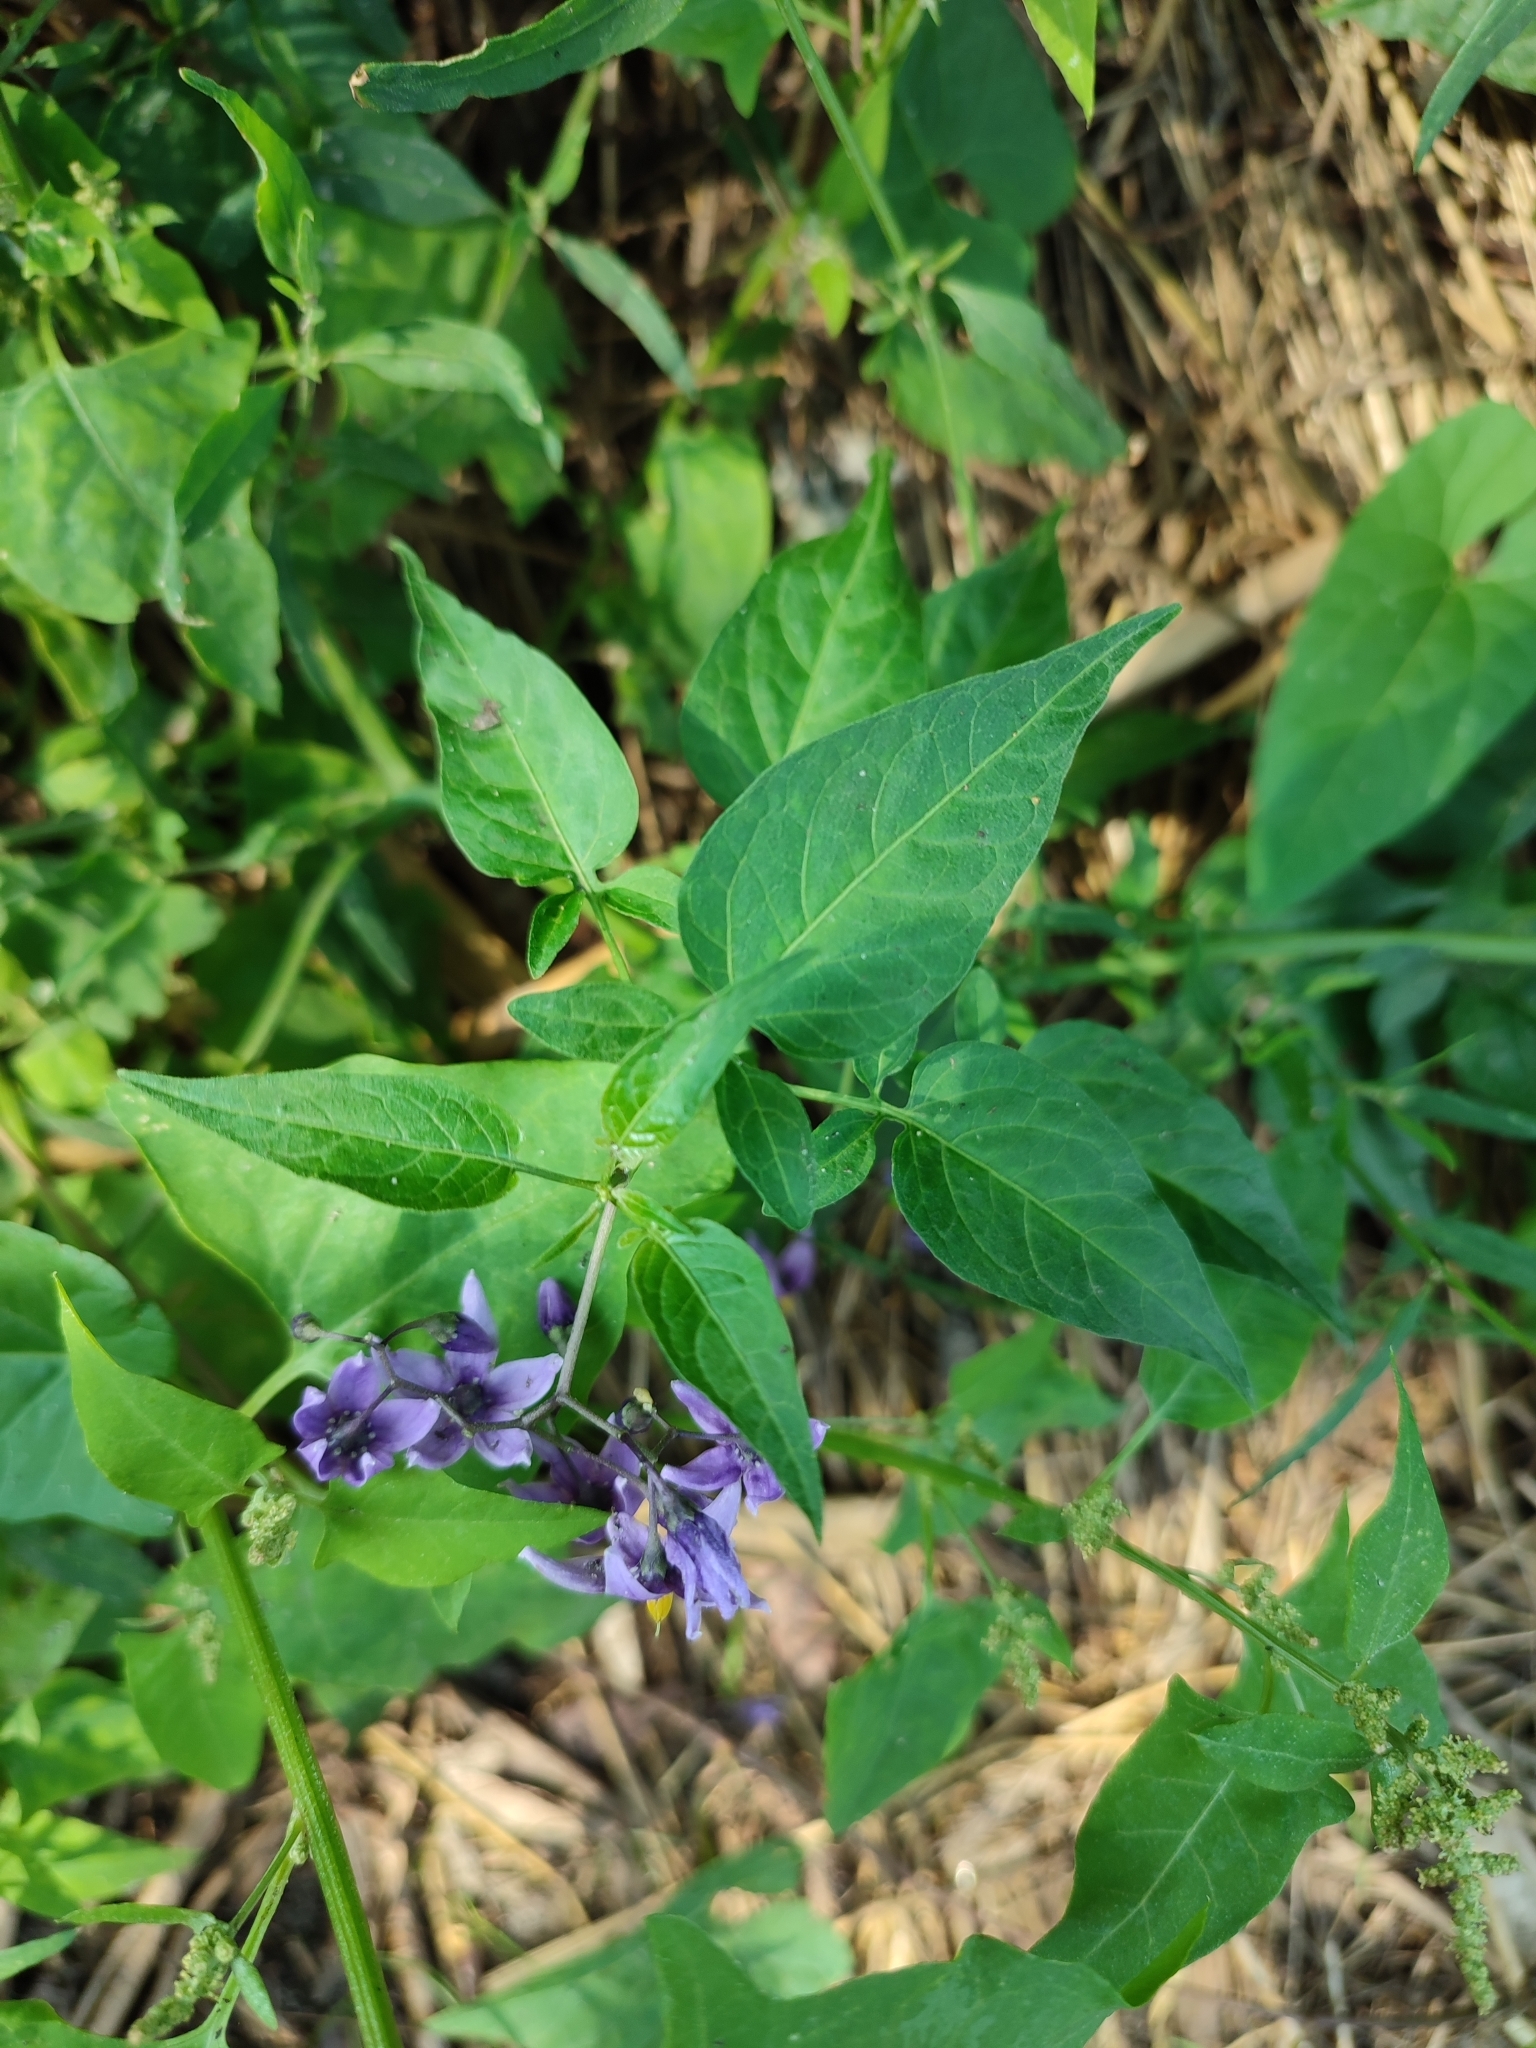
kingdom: Plantae
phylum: Tracheophyta
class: Magnoliopsida
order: Solanales
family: Solanaceae
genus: Solanum
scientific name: Solanum dulcamara
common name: Climbing nightshade
